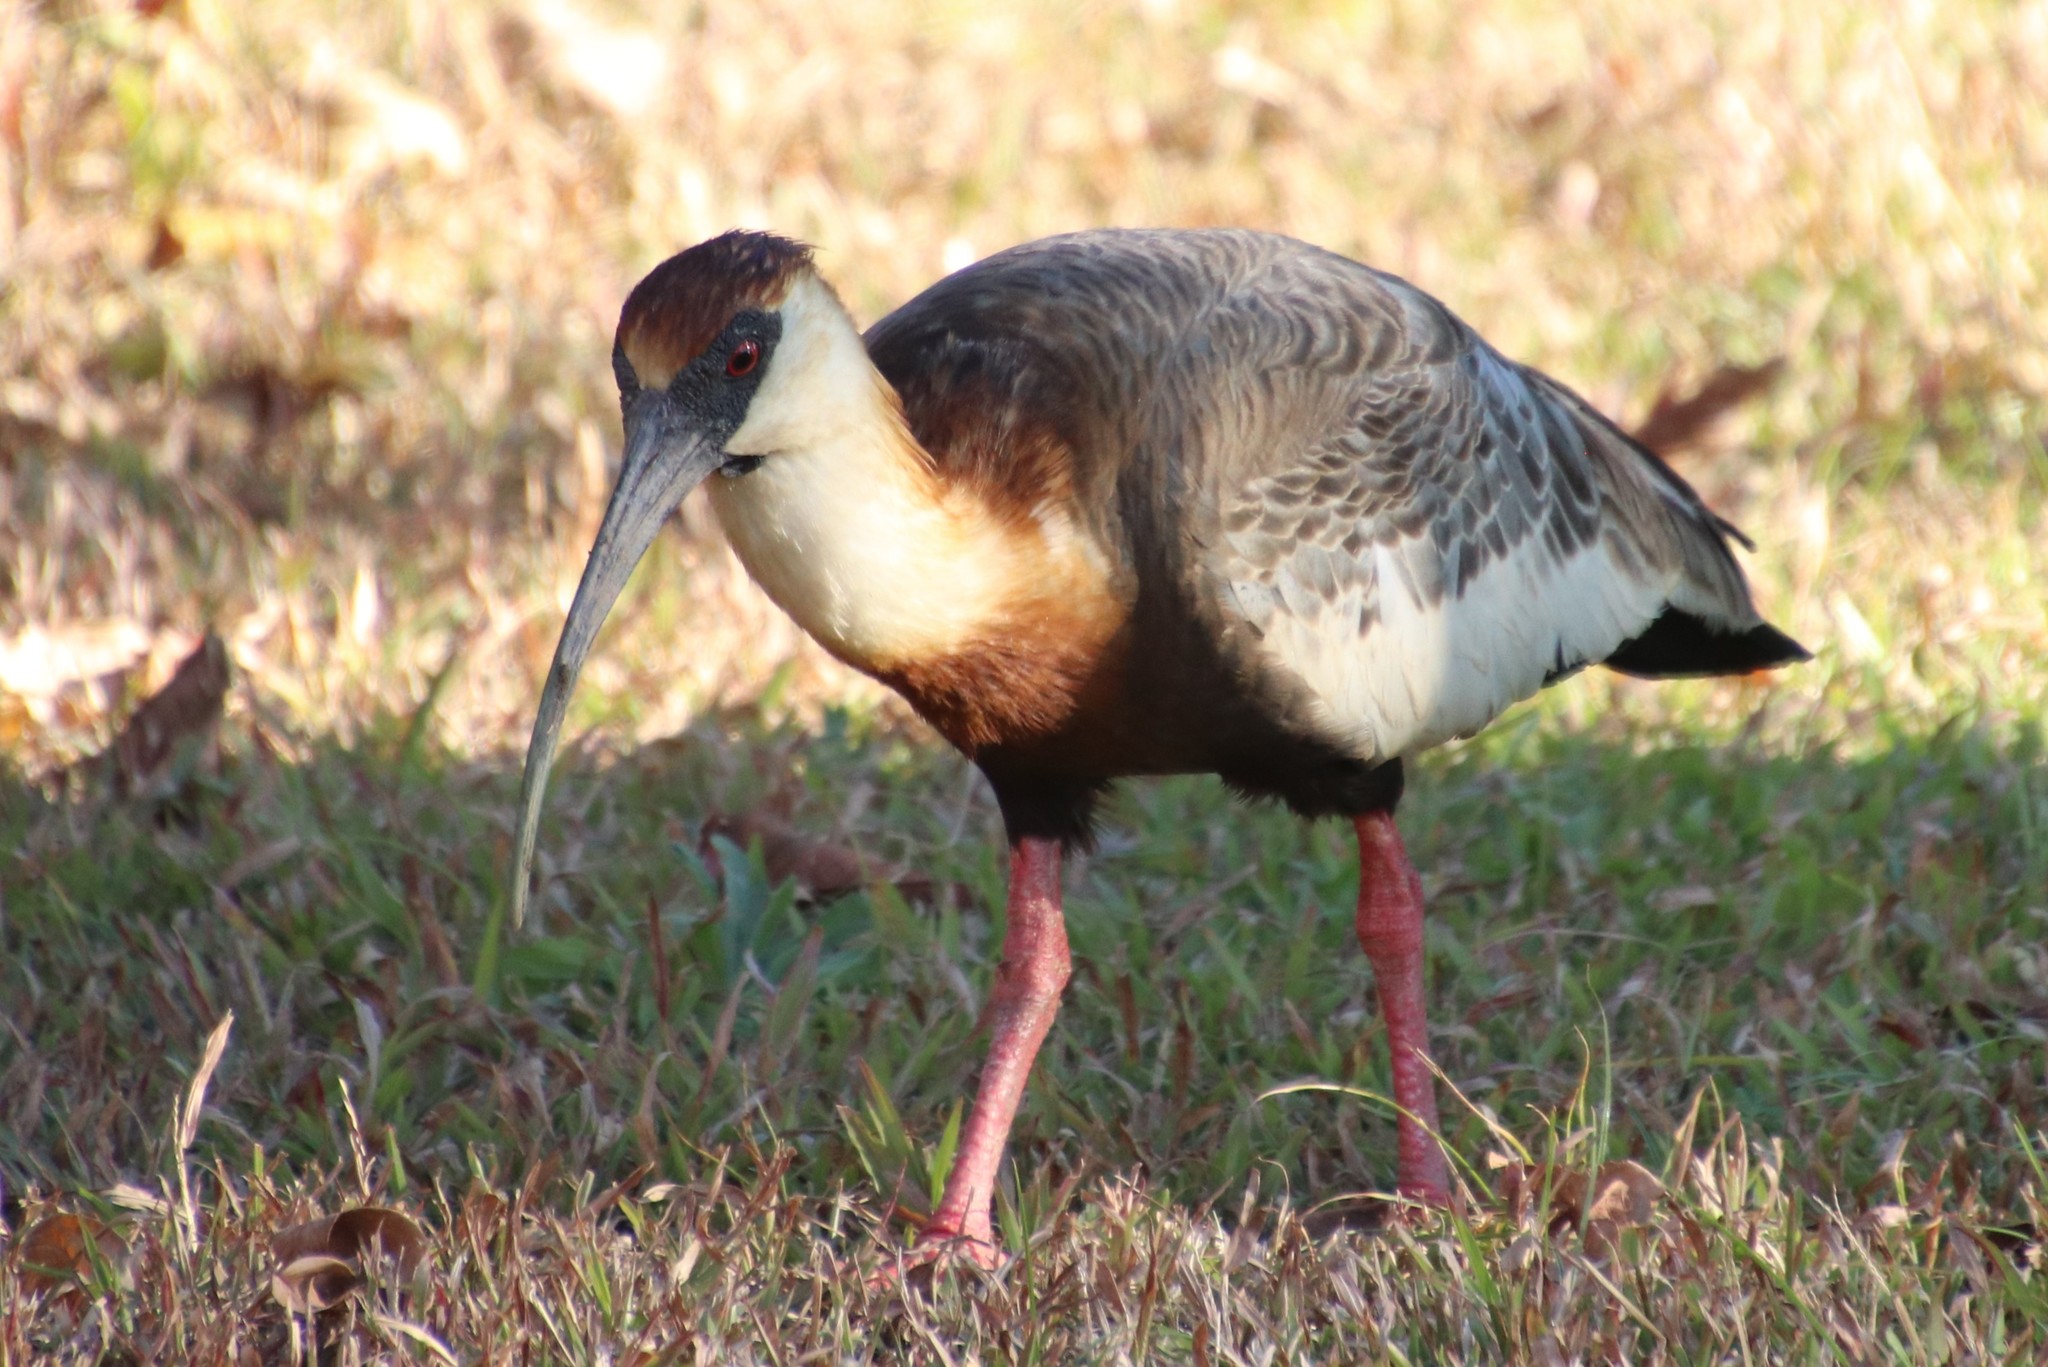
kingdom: Animalia
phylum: Chordata
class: Aves
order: Pelecaniformes
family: Threskiornithidae
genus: Theristicus
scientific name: Theristicus caudatus
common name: Buff-necked ibis
